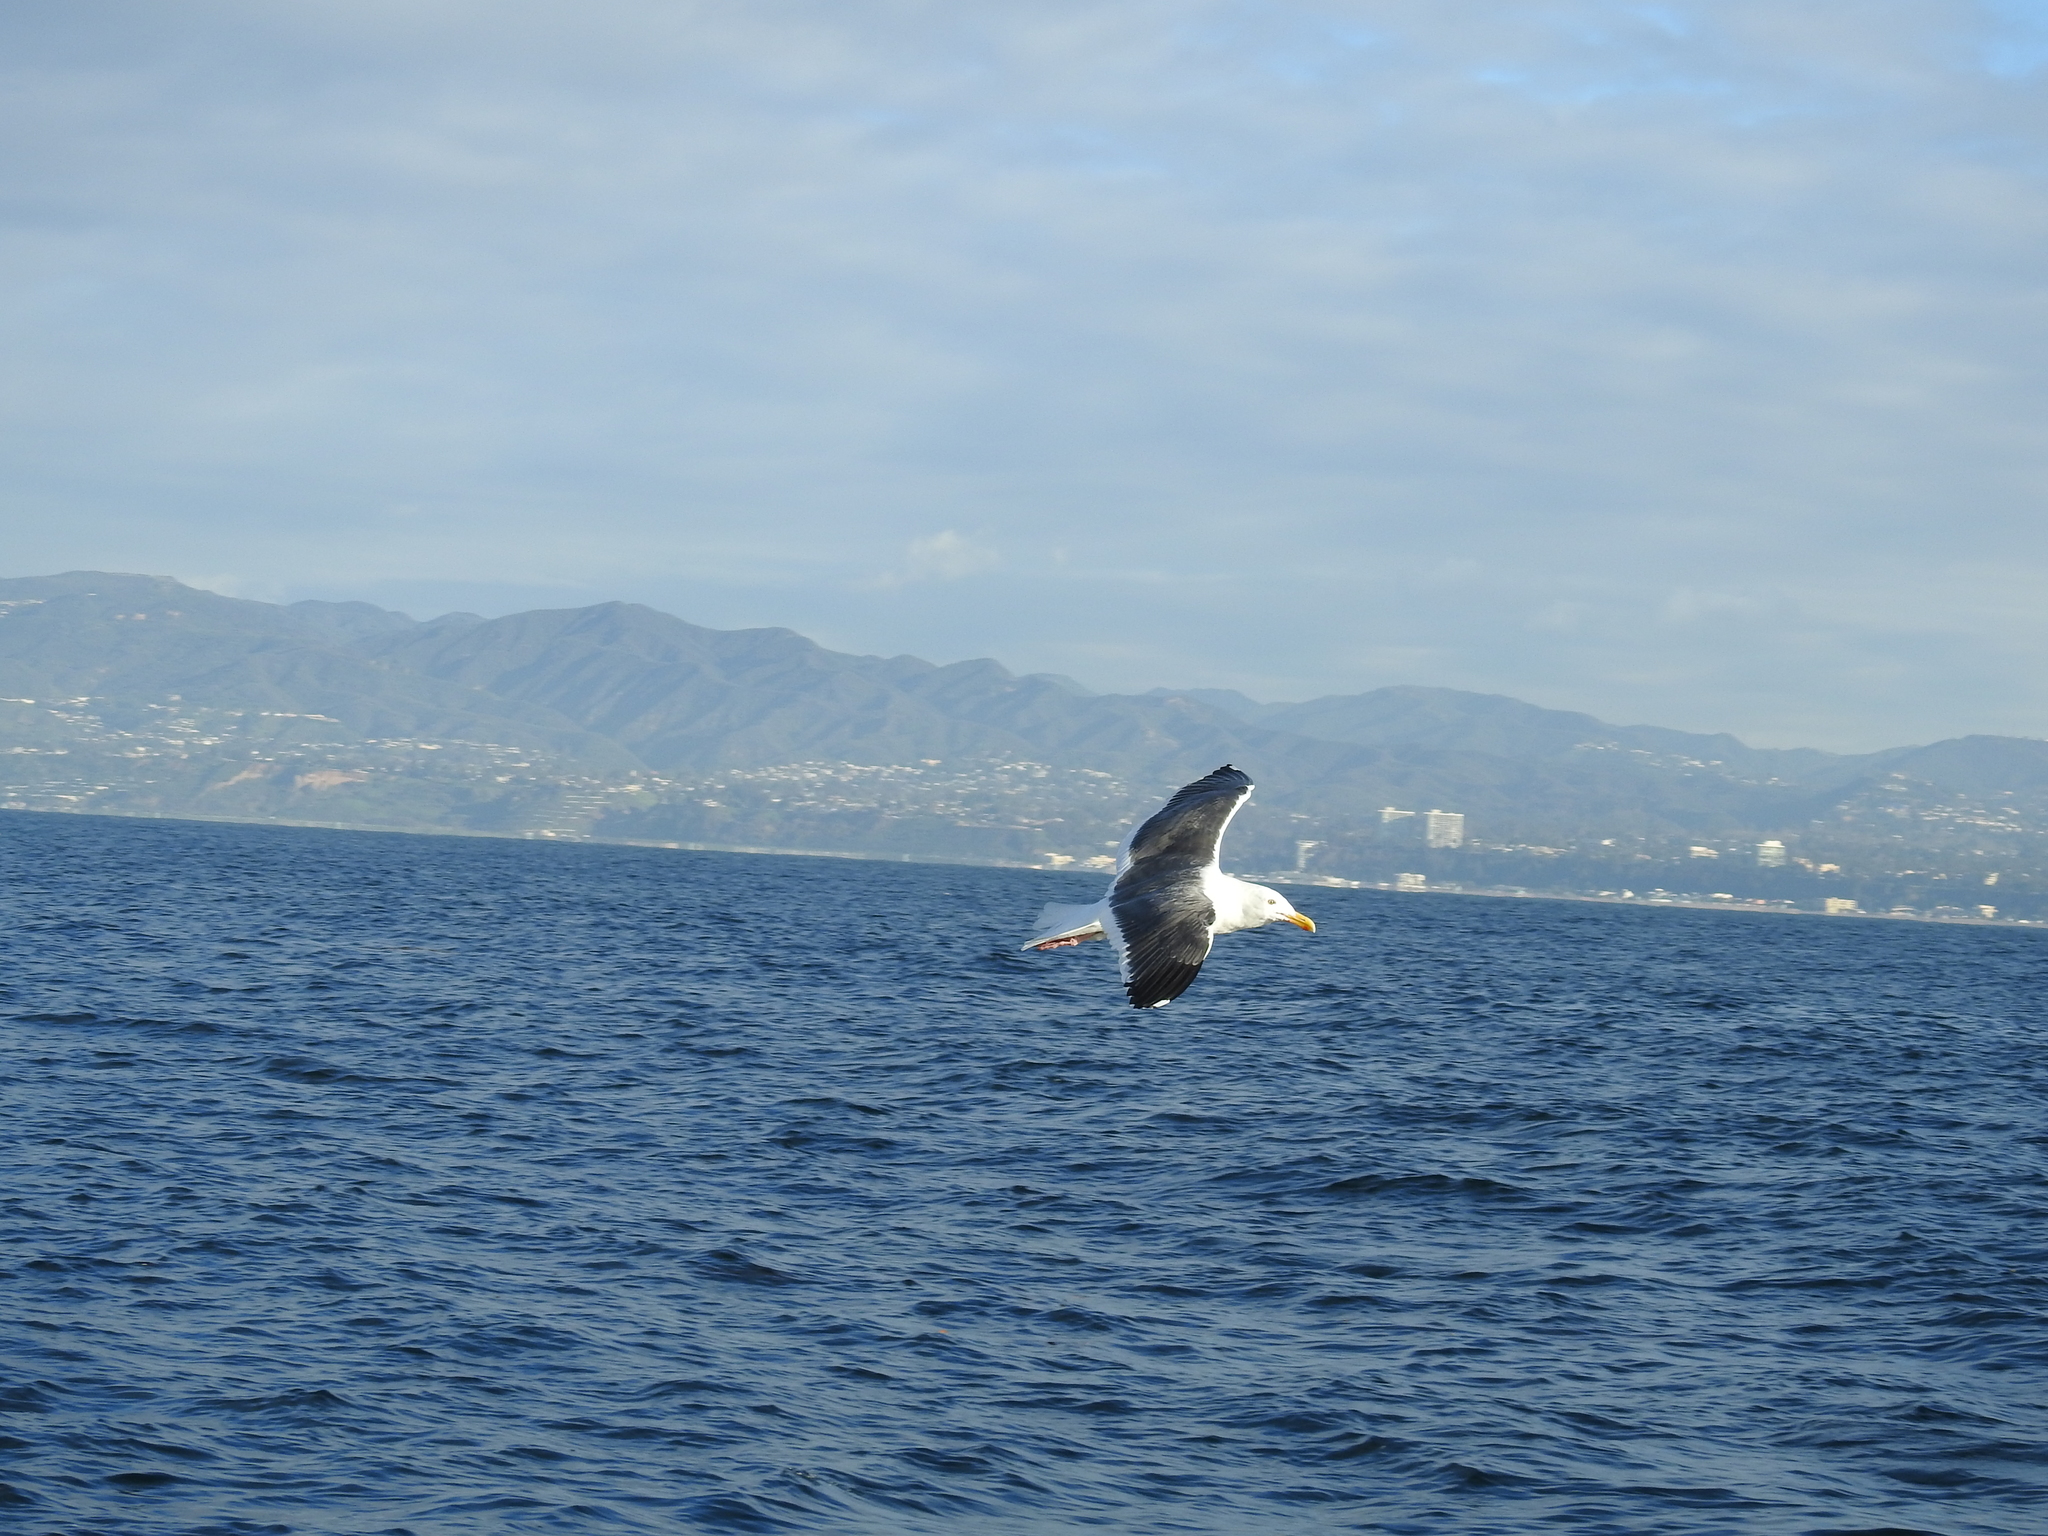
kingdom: Animalia
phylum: Chordata
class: Aves
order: Charadriiformes
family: Laridae
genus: Larus
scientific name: Larus occidentalis
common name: Western gull
